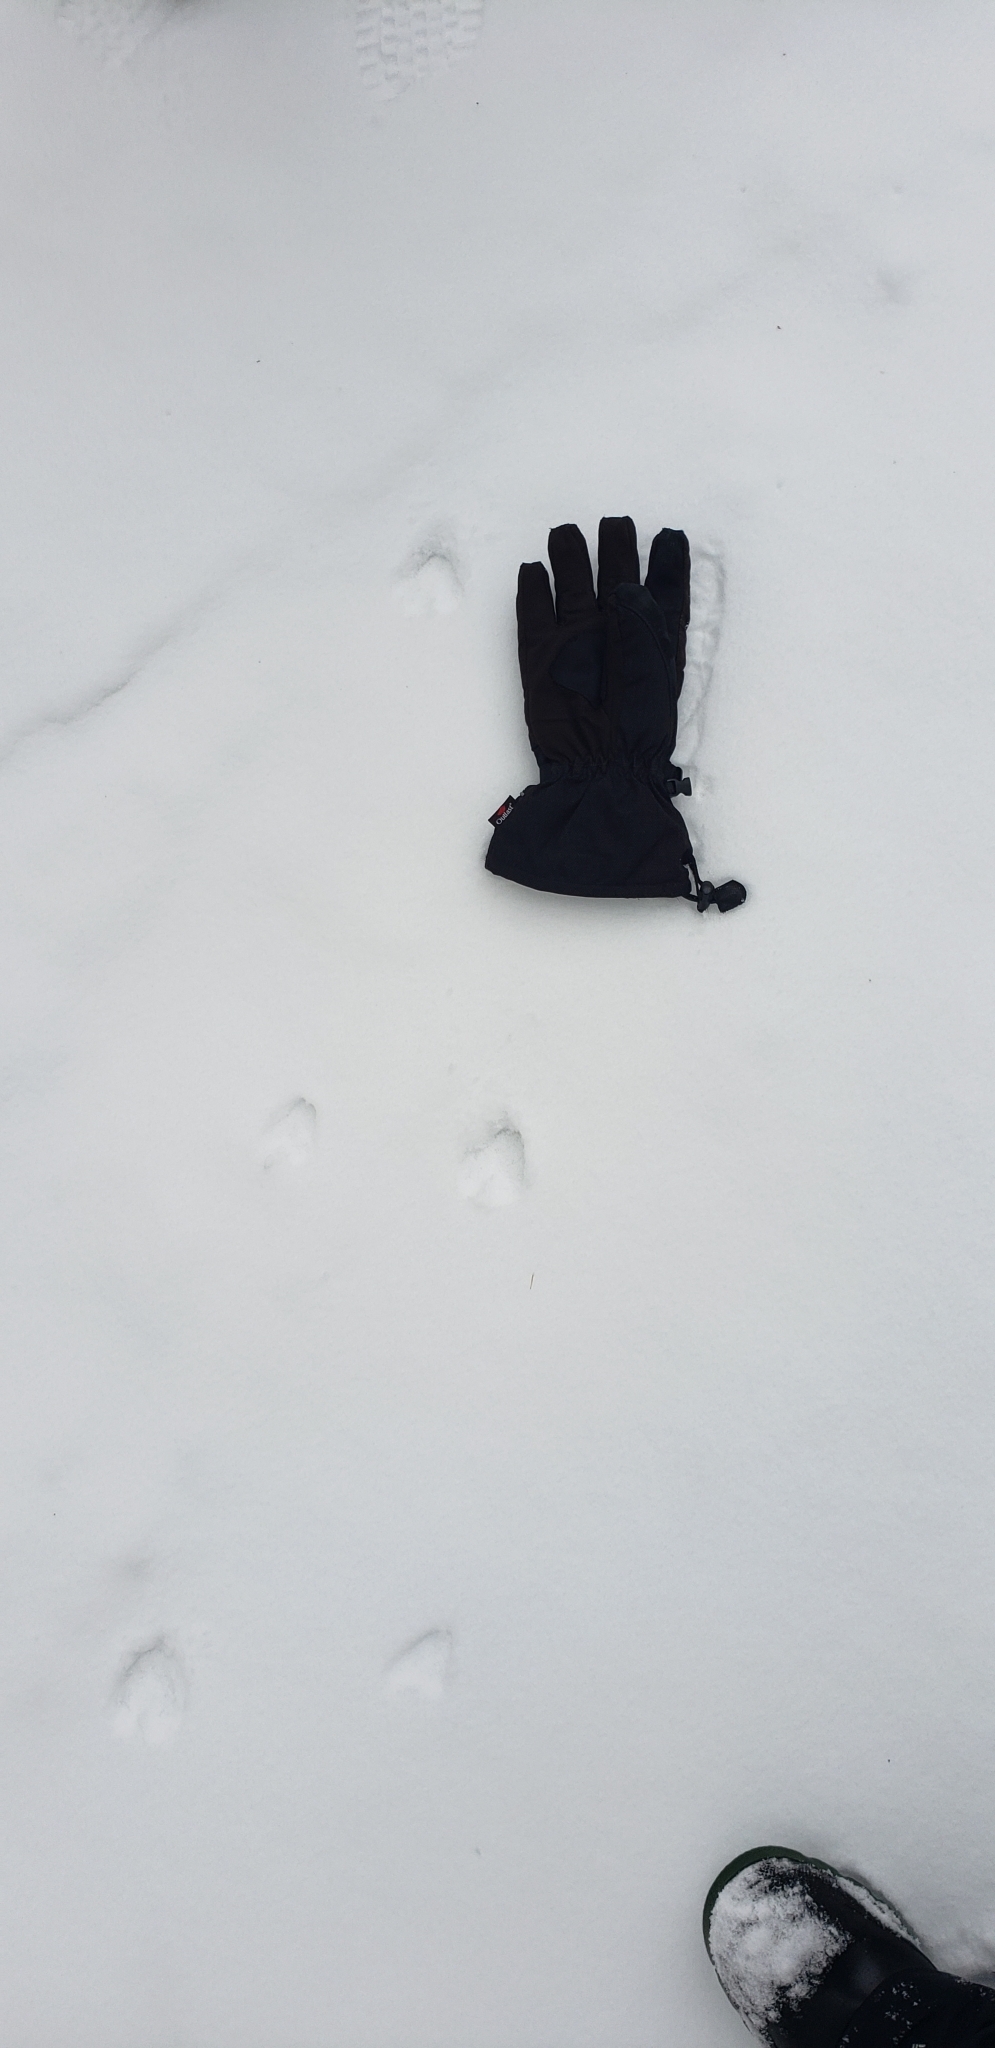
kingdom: Animalia
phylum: Chordata
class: Mammalia
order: Artiodactyla
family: Cervidae
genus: Odocoileus
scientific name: Odocoileus virginianus
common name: White-tailed deer
